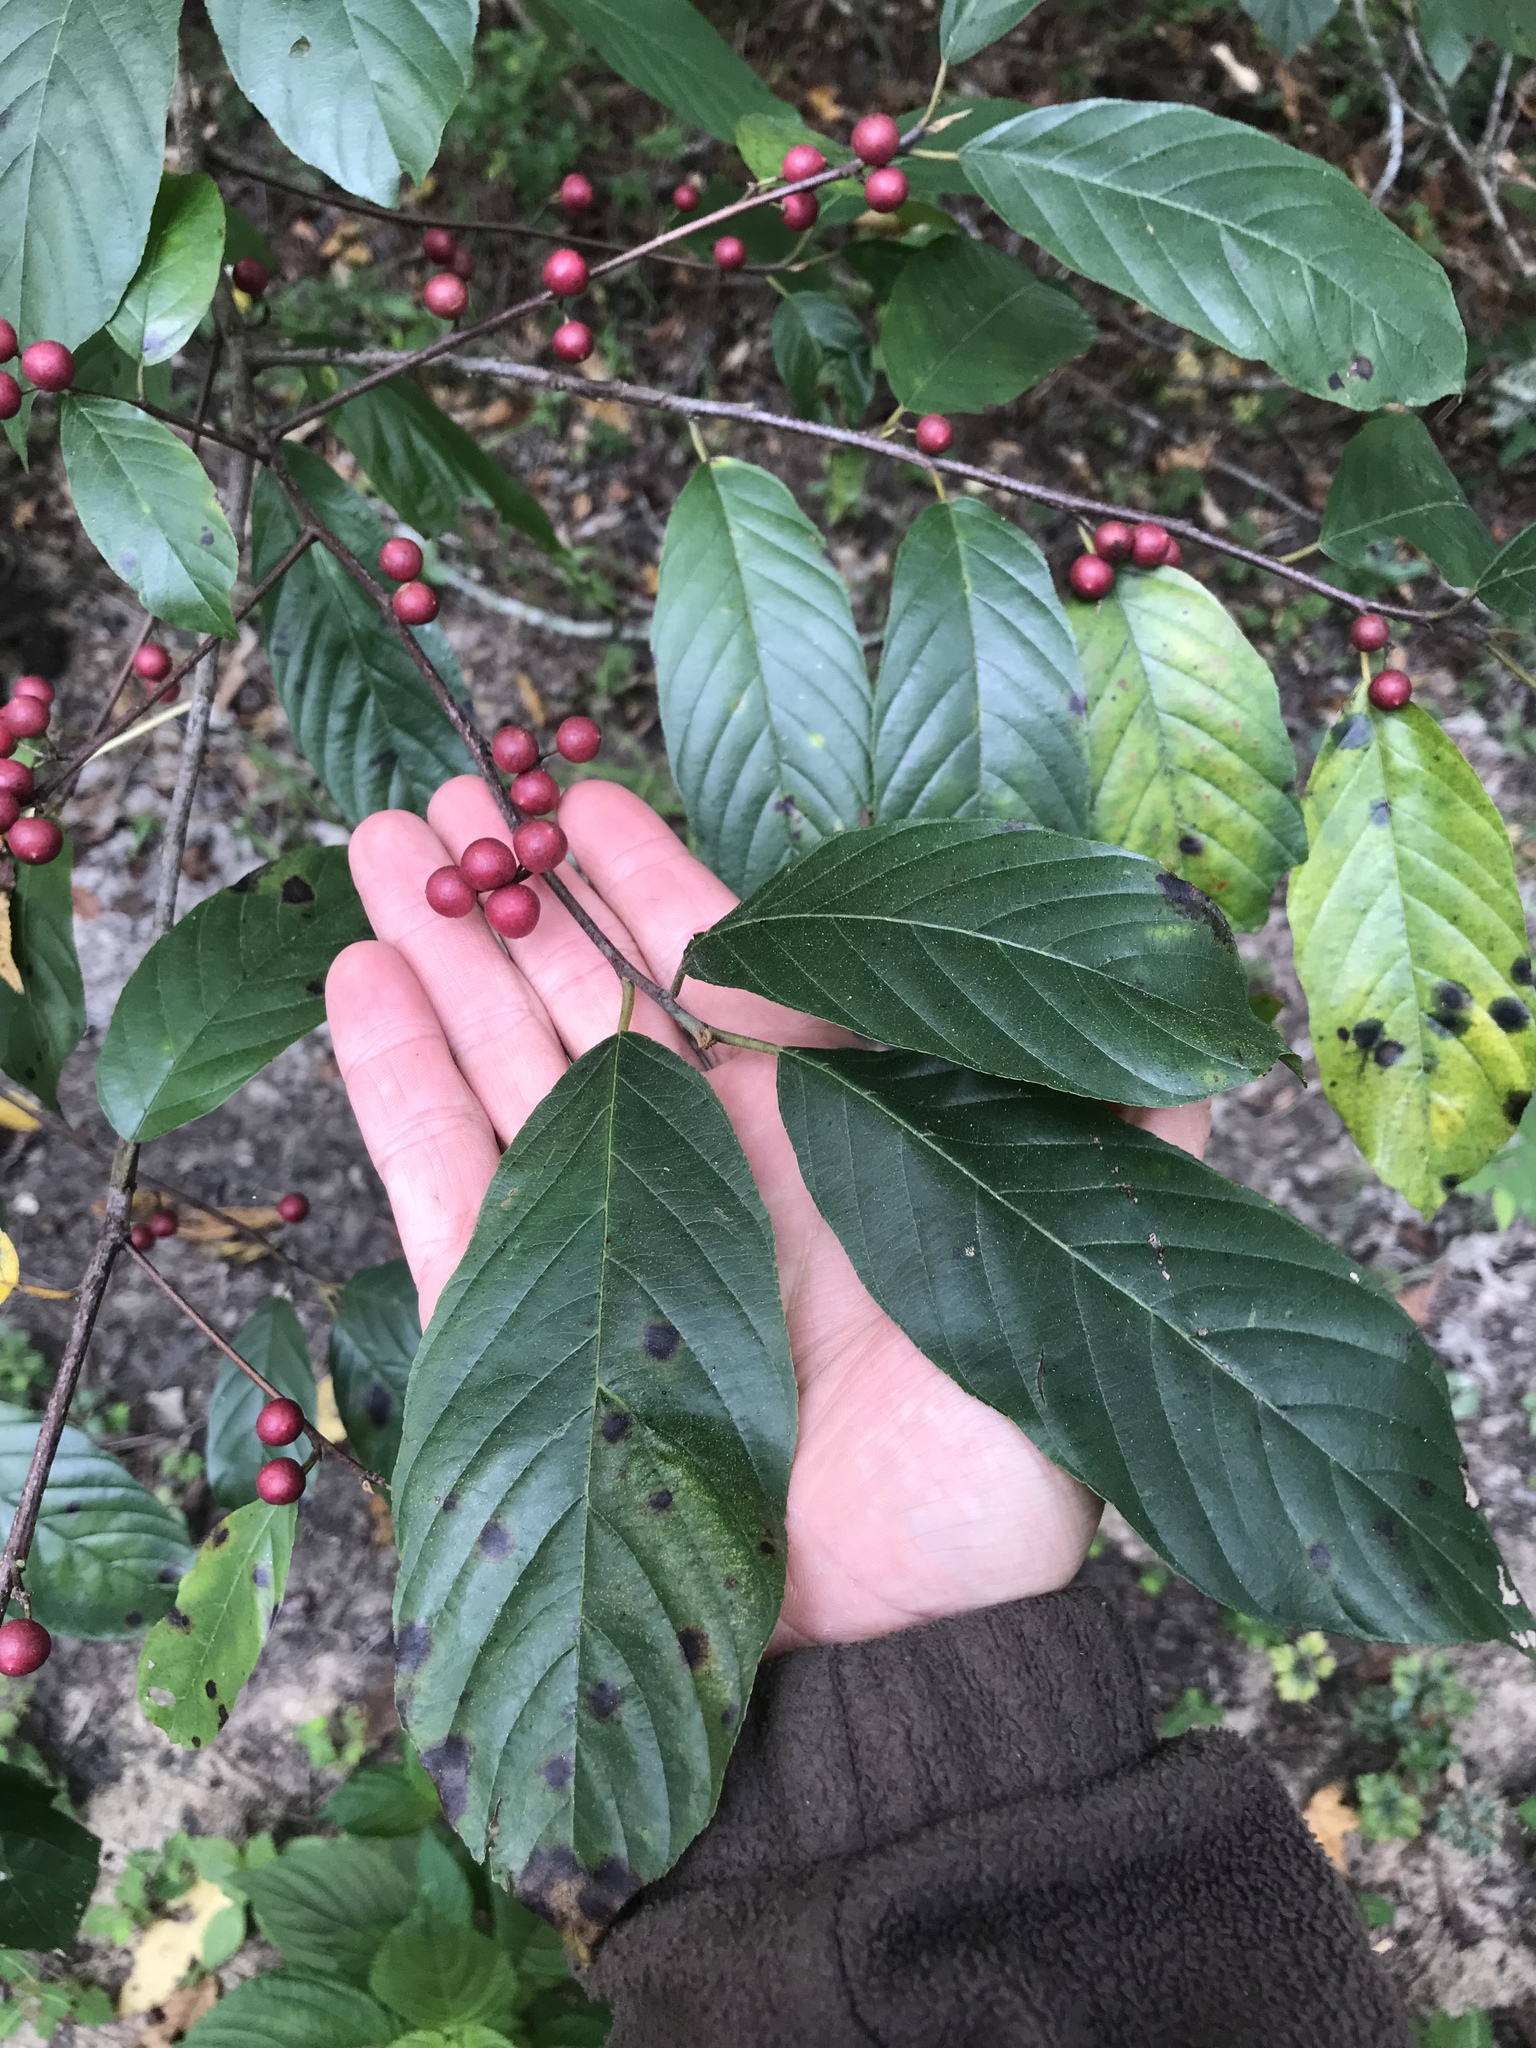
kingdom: Plantae
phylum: Tracheophyta
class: Magnoliopsida
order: Rosales
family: Rhamnaceae
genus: Frangula
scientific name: Frangula caroliniana
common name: Carolina buckthorn
